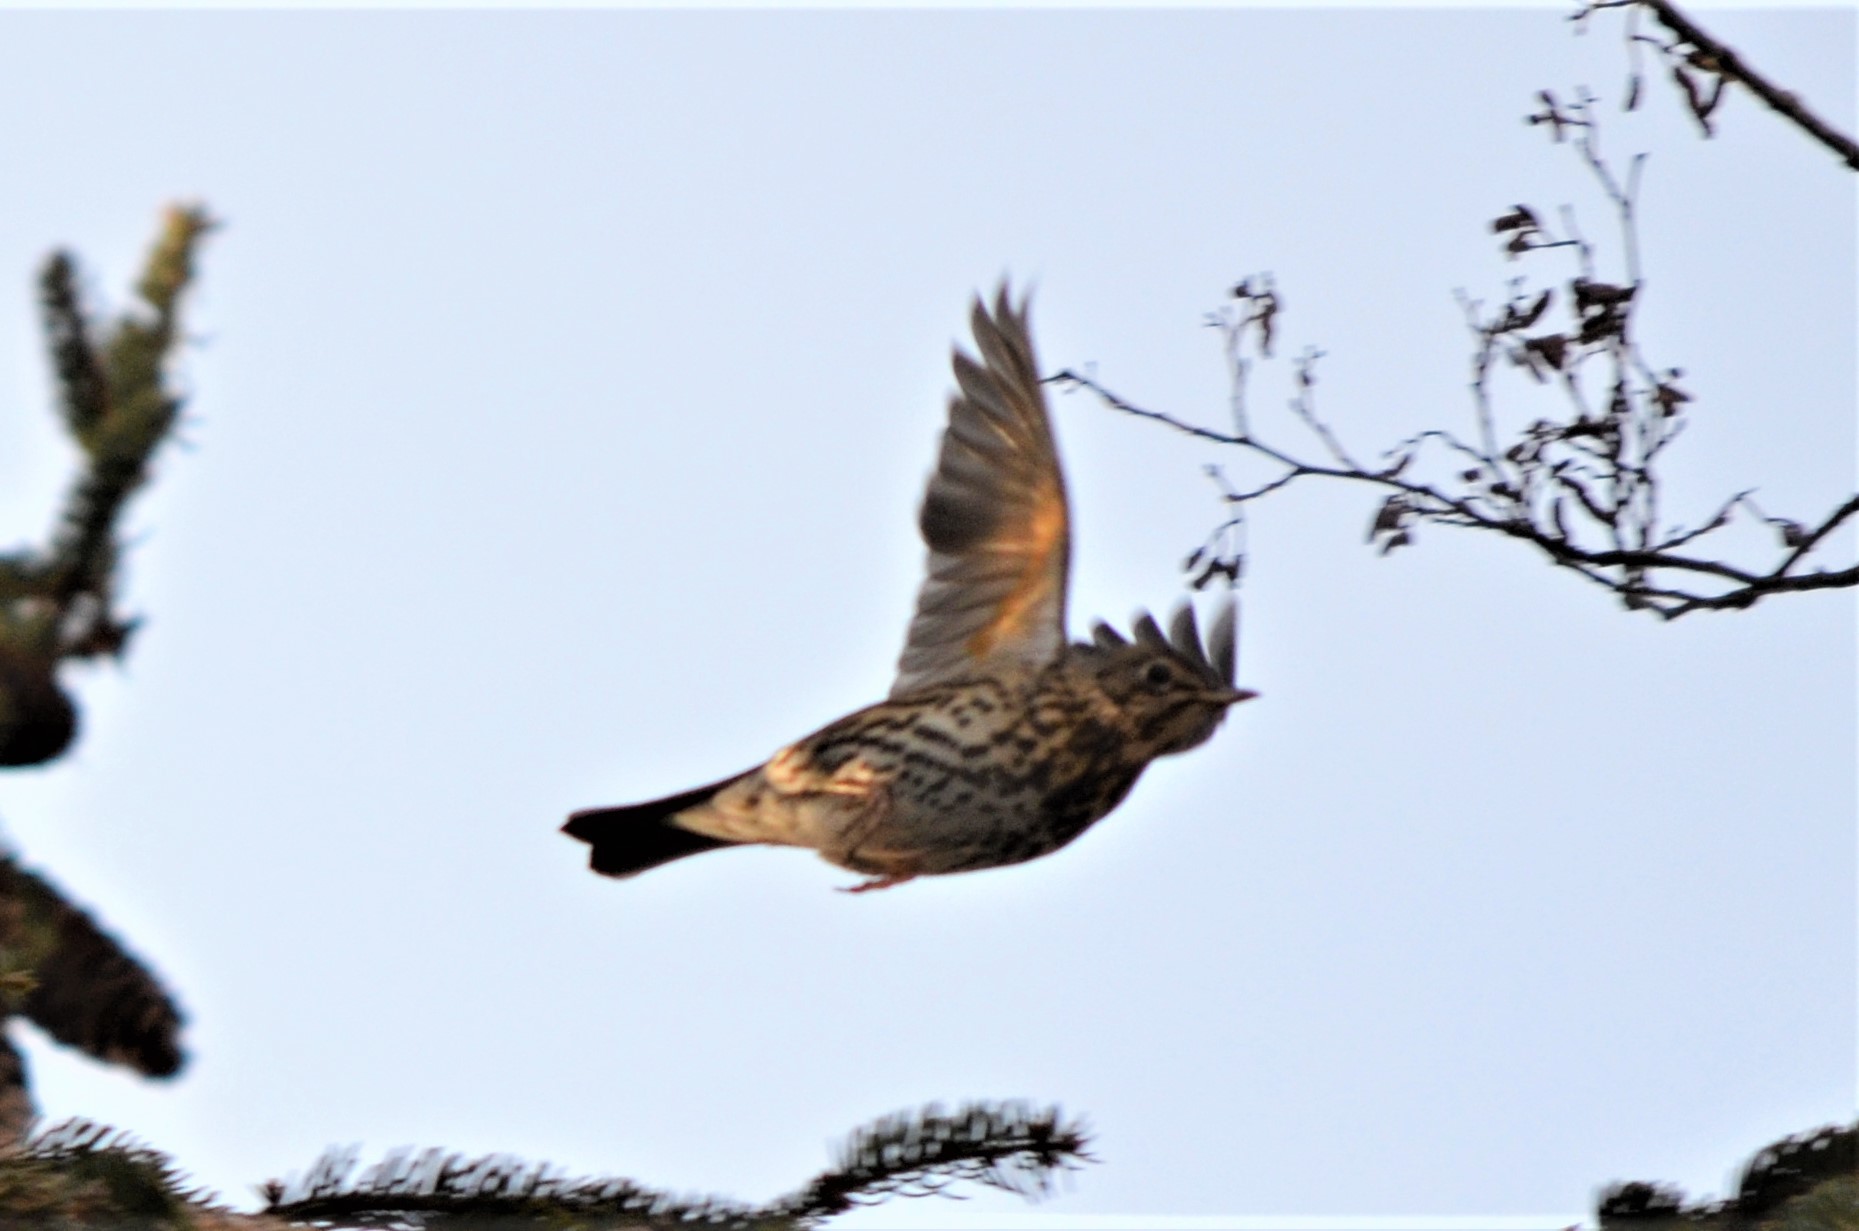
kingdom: Animalia
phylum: Chordata
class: Aves
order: Passeriformes
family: Turdidae
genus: Turdus
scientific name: Turdus philomelos
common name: Song thrush
